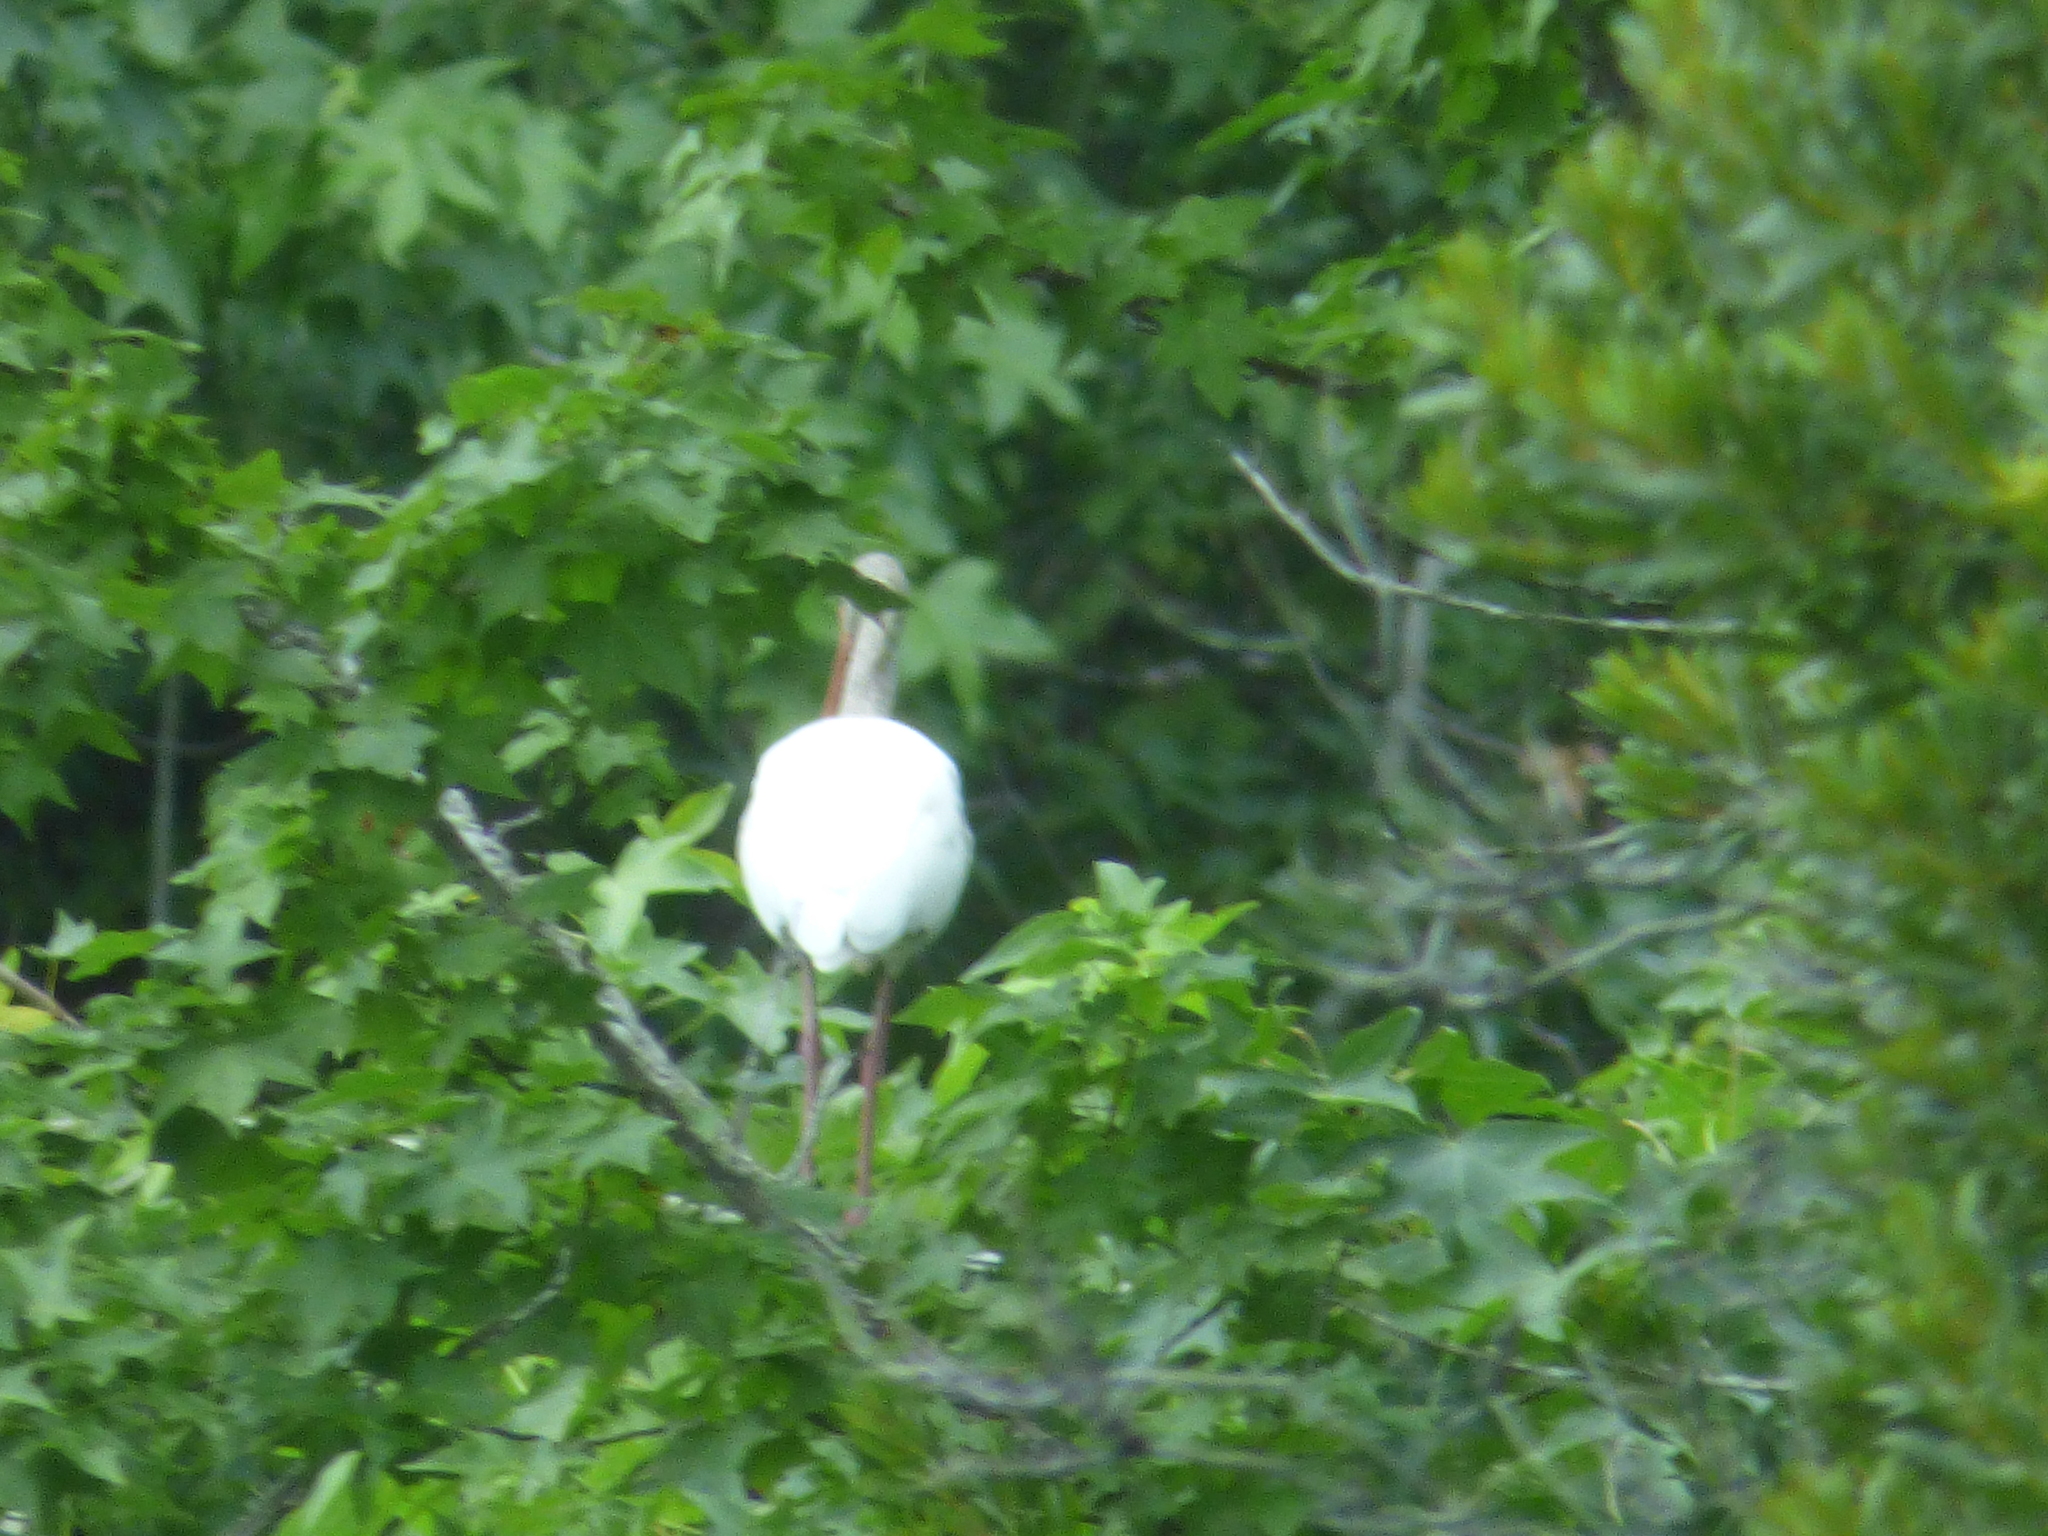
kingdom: Animalia
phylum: Chordata
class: Aves
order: Pelecaniformes
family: Threskiornithidae
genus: Eudocimus
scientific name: Eudocimus albus
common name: White ibis
